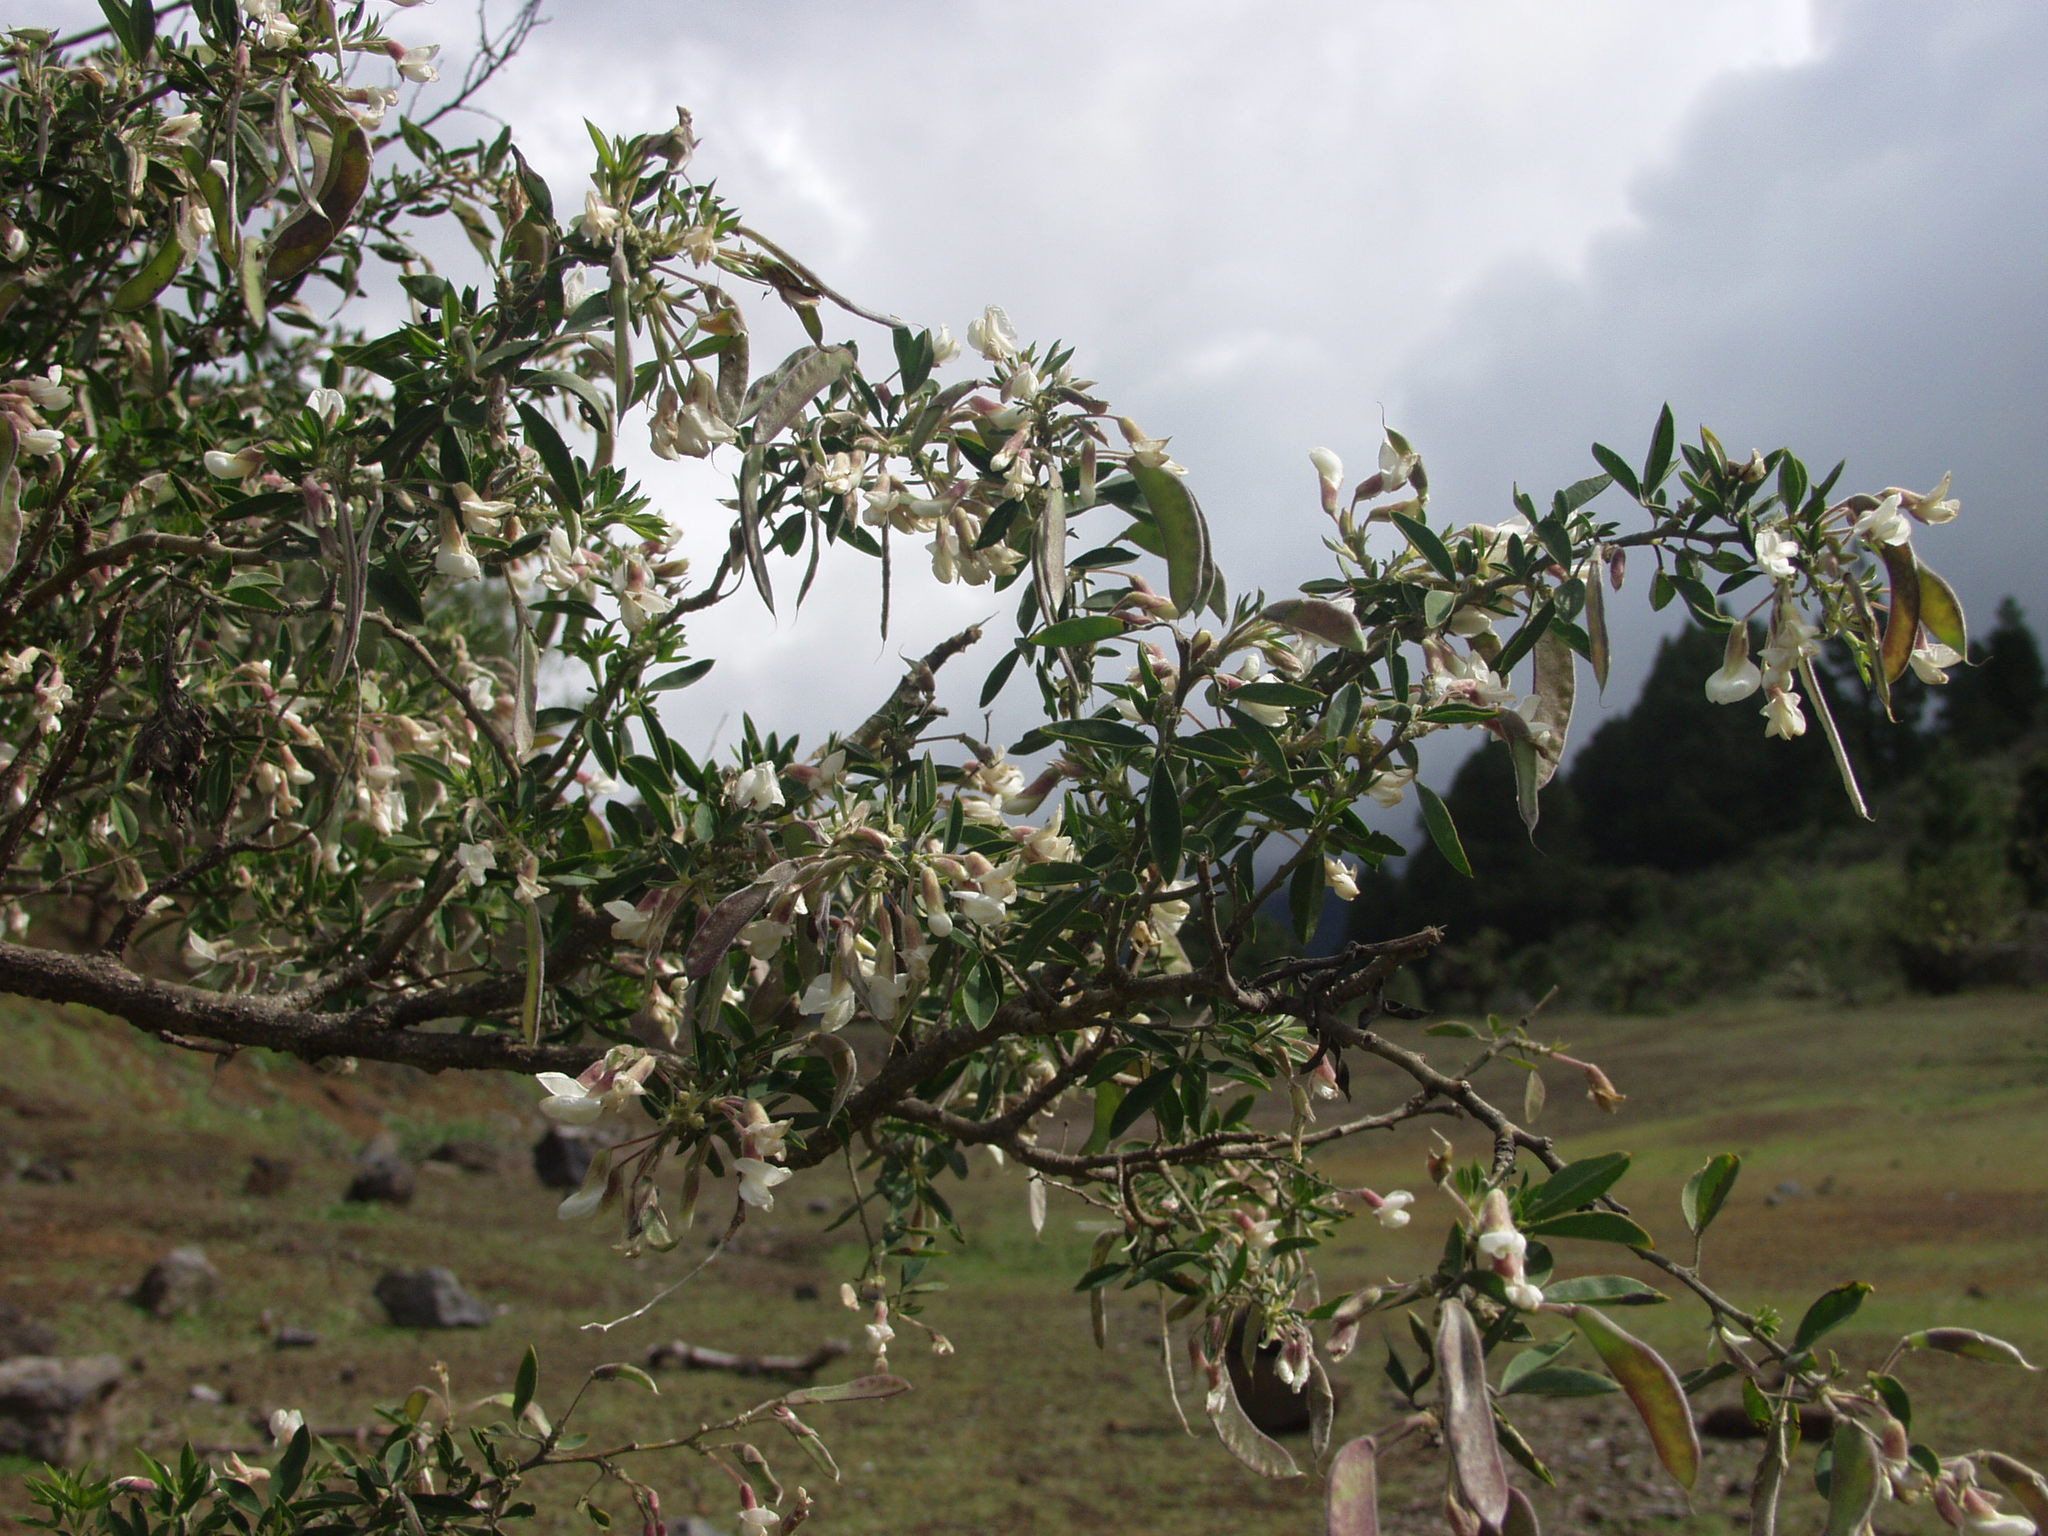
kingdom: Plantae
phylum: Tracheophyta
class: Magnoliopsida
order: Fabales
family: Fabaceae
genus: Chamaecytisus
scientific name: Chamaecytisus prolifer
